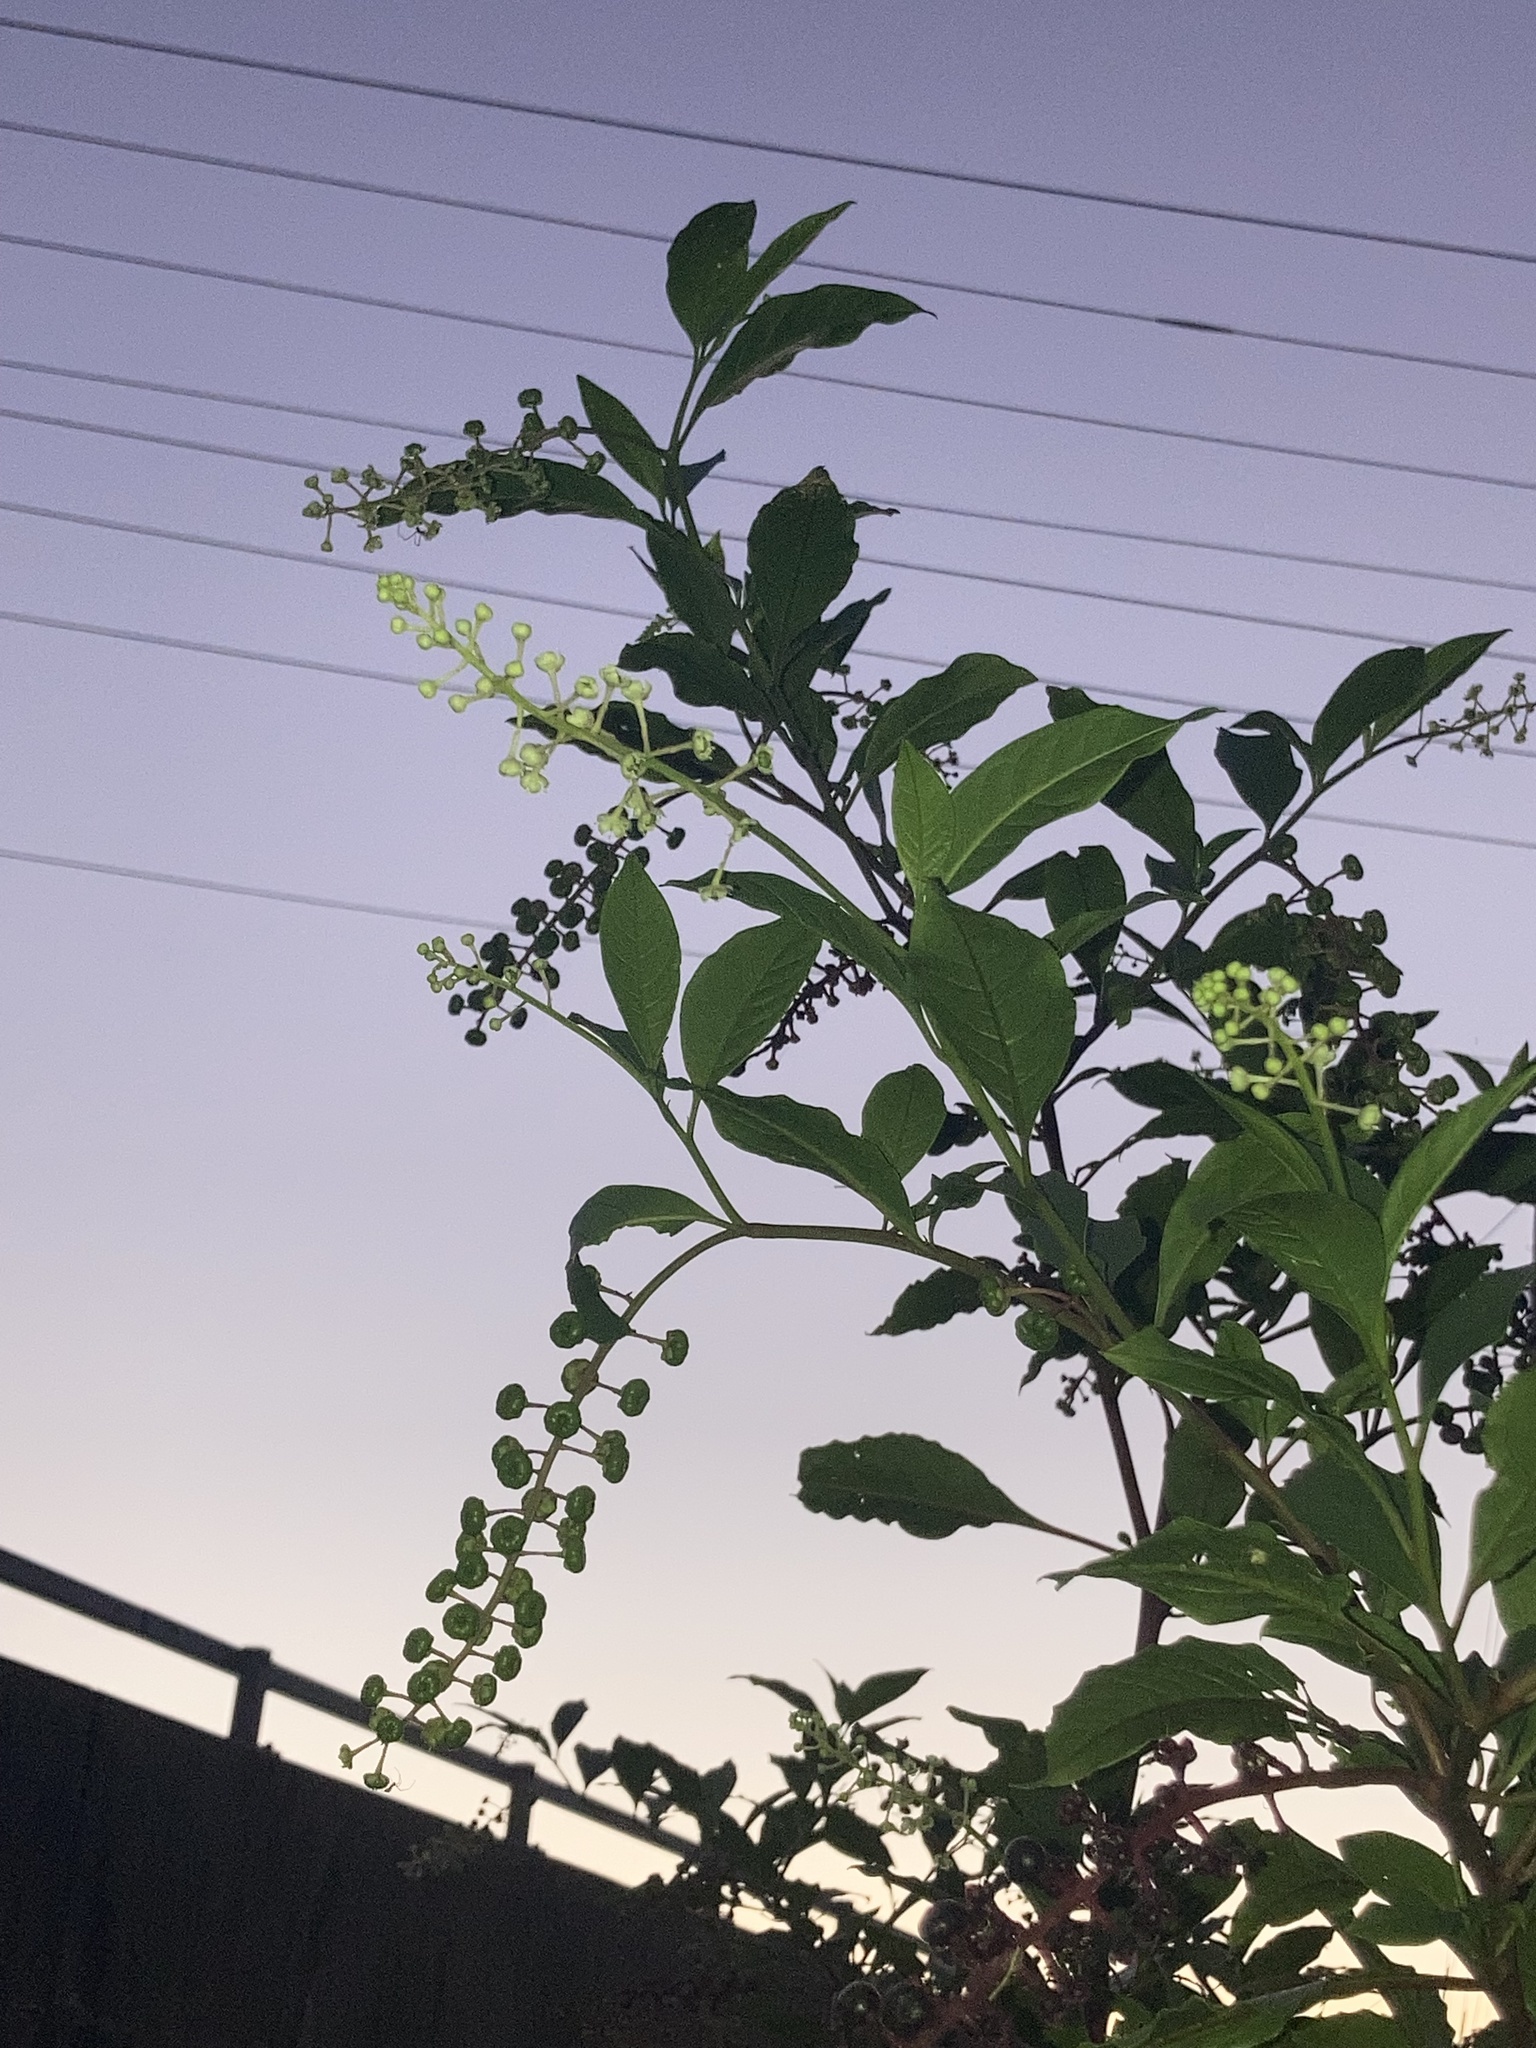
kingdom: Plantae
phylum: Tracheophyta
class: Magnoliopsida
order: Caryophyllales
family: Phytolaccaceae
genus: Phytolacca
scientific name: Phytolacca americana
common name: American pokeweed
